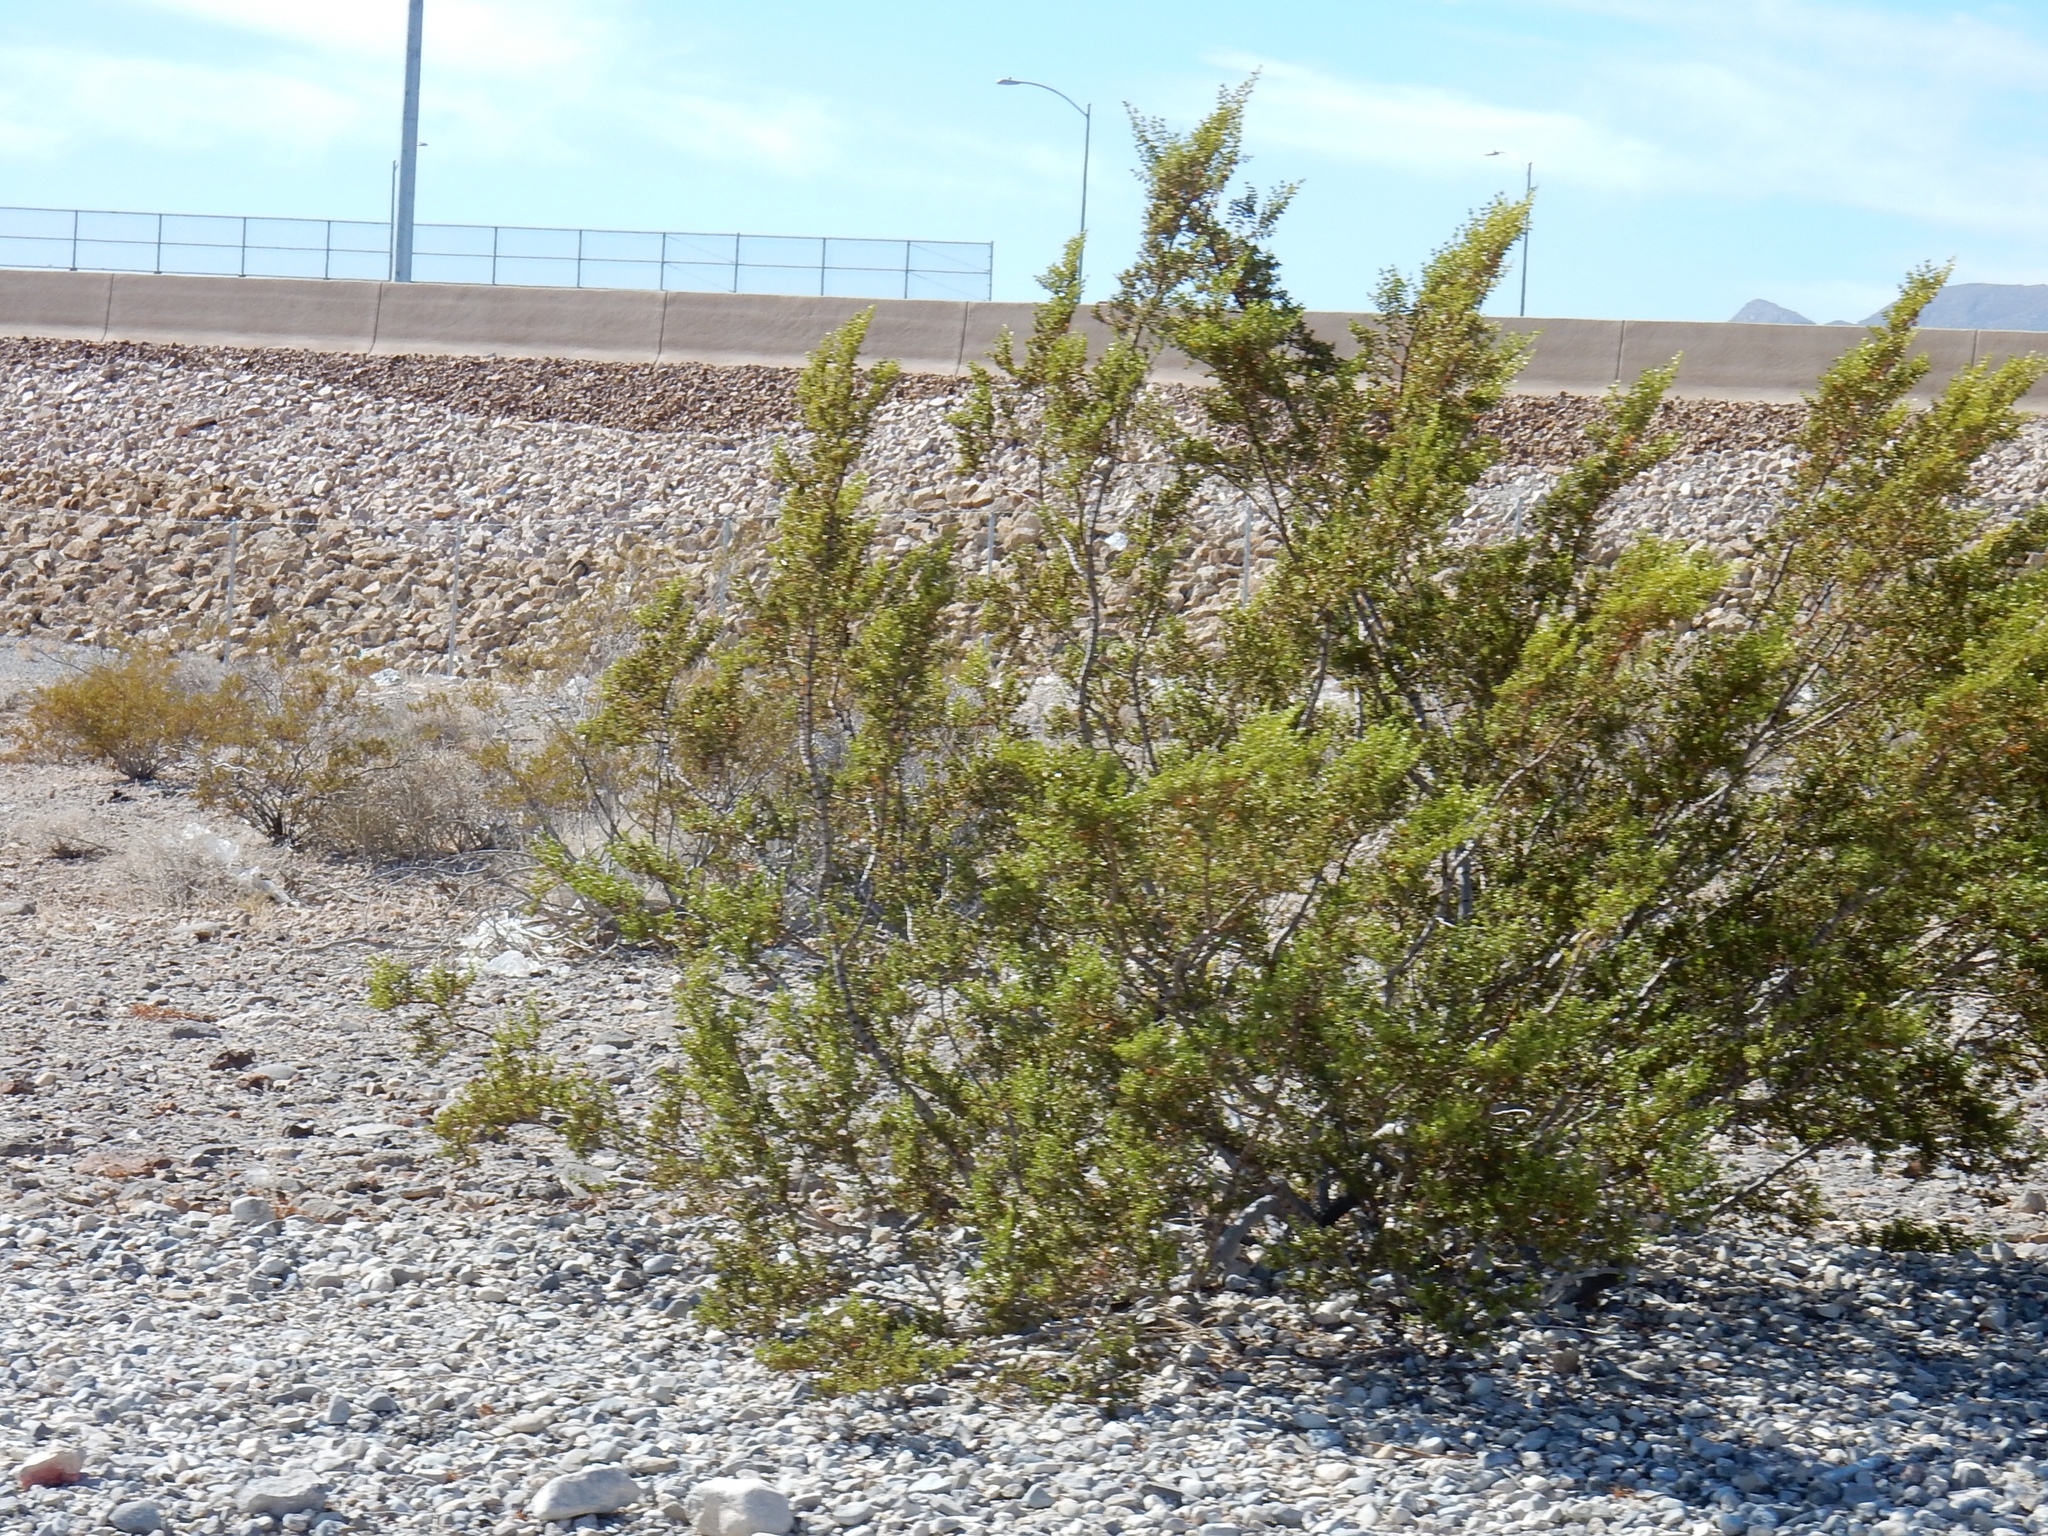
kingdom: Plantae
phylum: Tracheophyta
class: Magnoliopsida
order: Zygophyllales
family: Zygophyllaceae
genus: Larrea
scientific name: Larrea tridentata
